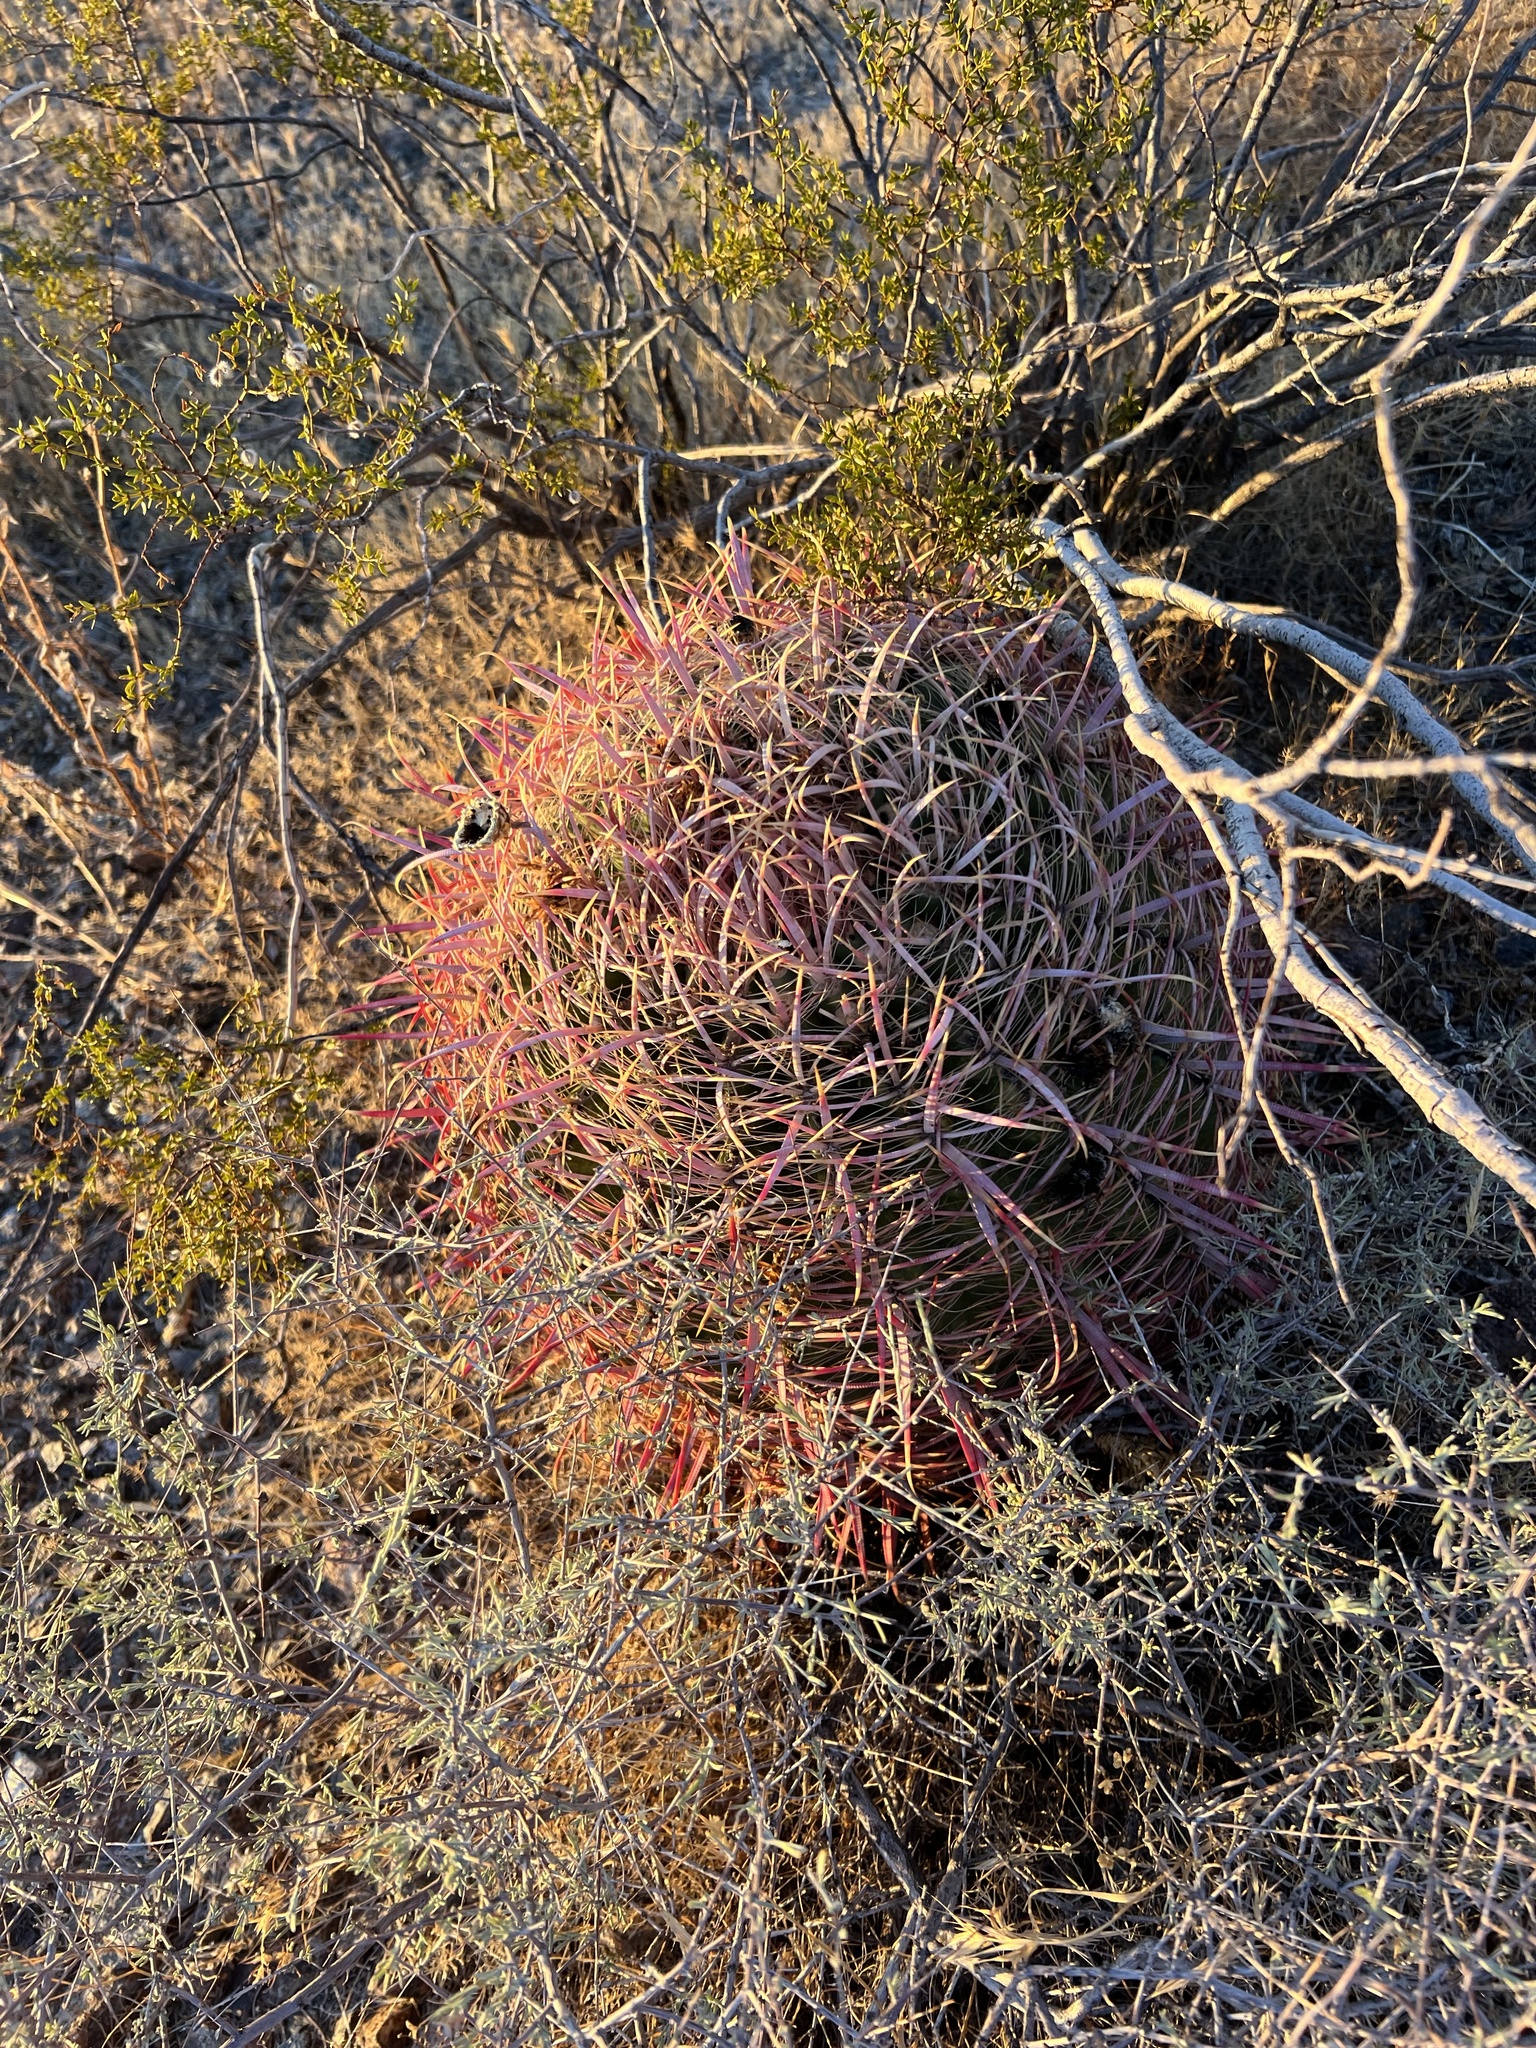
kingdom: Plantae
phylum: Tracheophyta
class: Magnoliopsida
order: Caryophyllales
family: Cactaceae
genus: Ferocactus
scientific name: Ferocactus cylindraceus
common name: California barrel cactus
